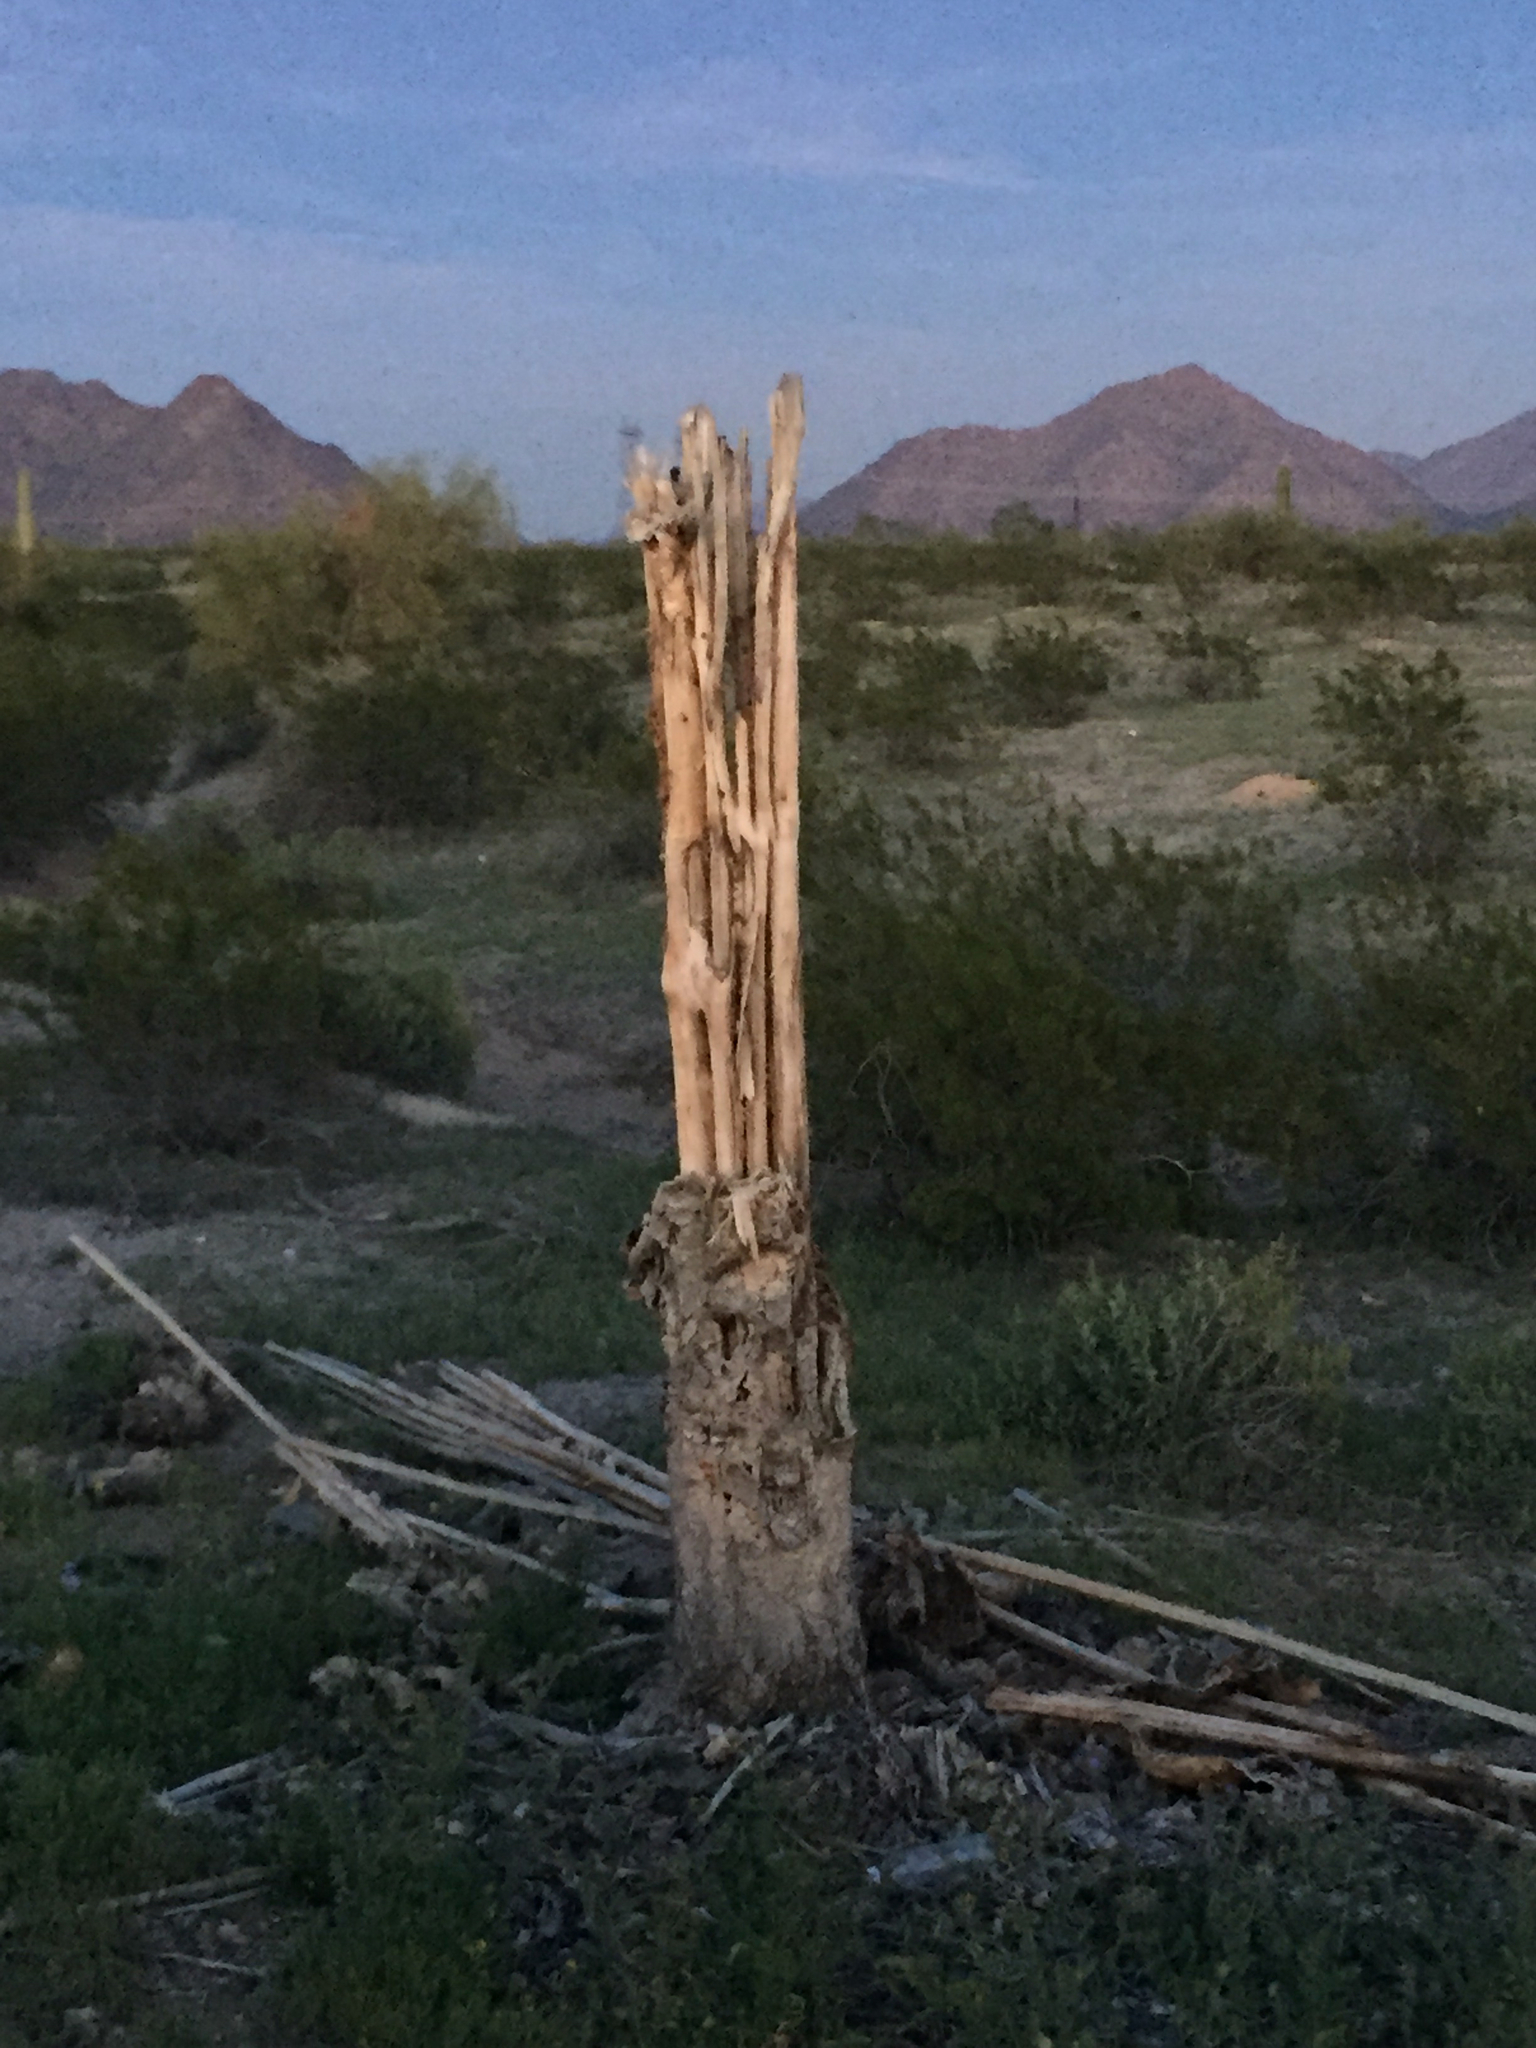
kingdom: Plantae
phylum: Tracheophyta
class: Magnoliopsida
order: Caryophyllales
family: Cactaceae
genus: Carnegiea
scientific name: Carnegiea gigantea
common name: Saguaro
